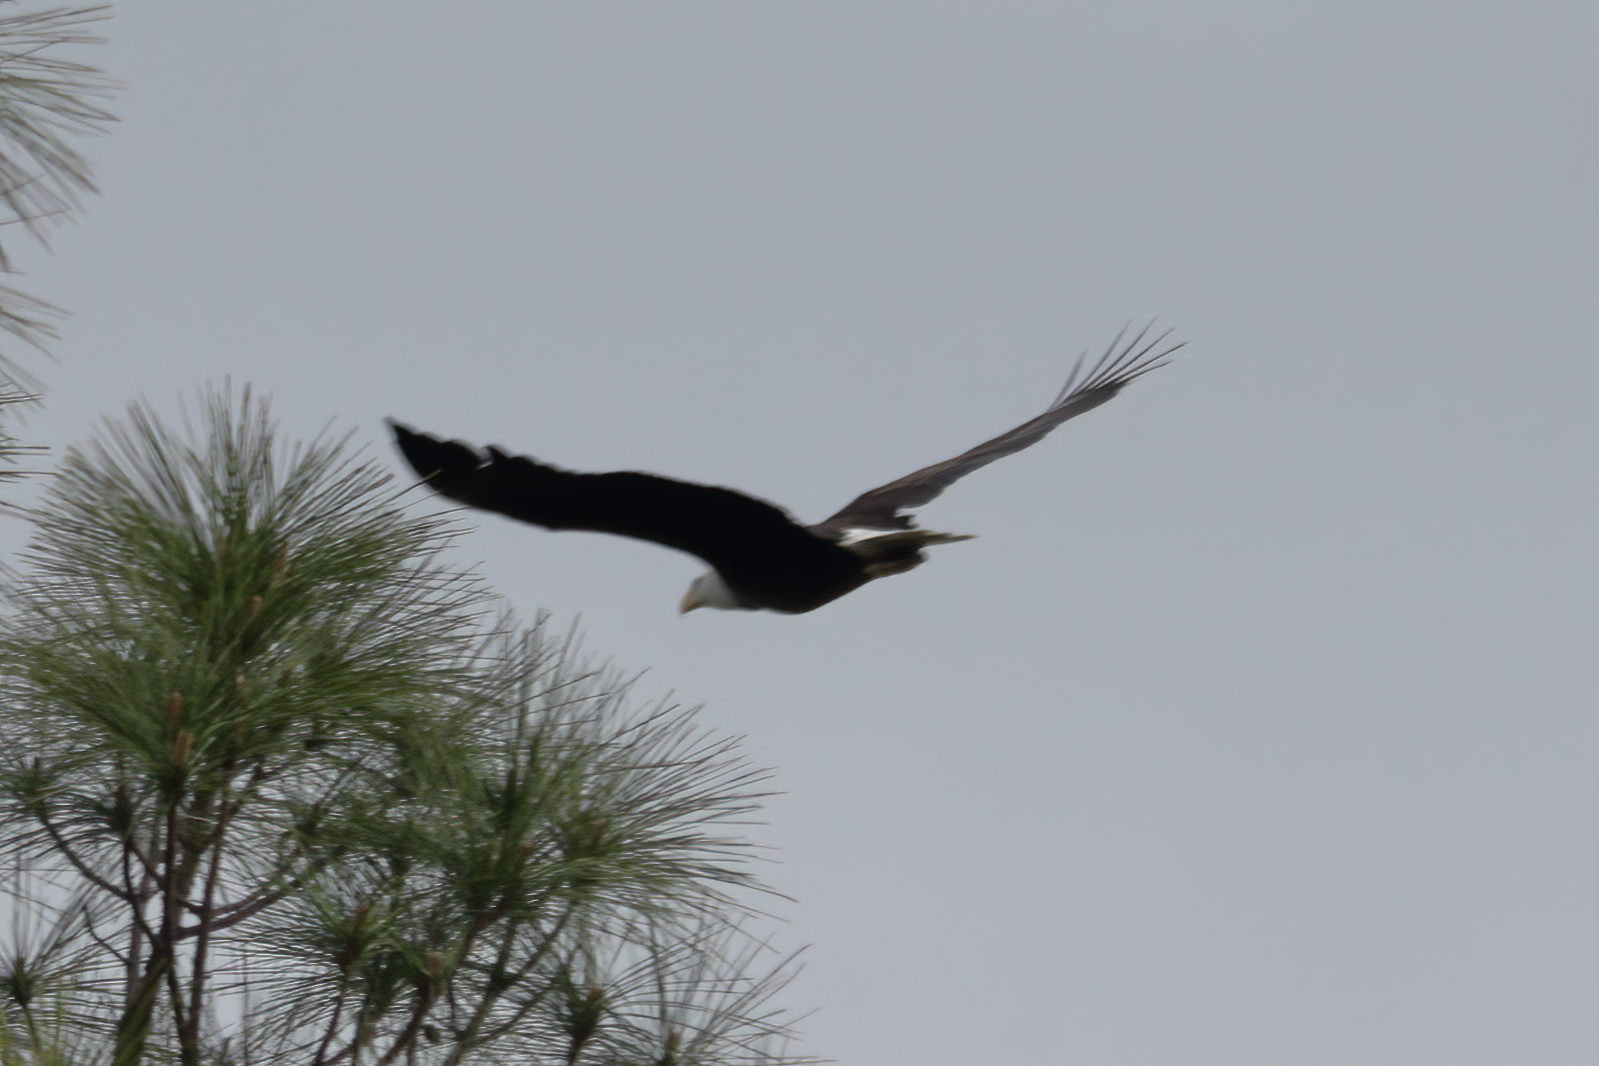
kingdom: Animalia
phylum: Chordata
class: Aves
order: Accipitriformes
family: Accipitridae
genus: Haliaeetus
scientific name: Haliaeetus leucocephalus
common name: Bald eagle
